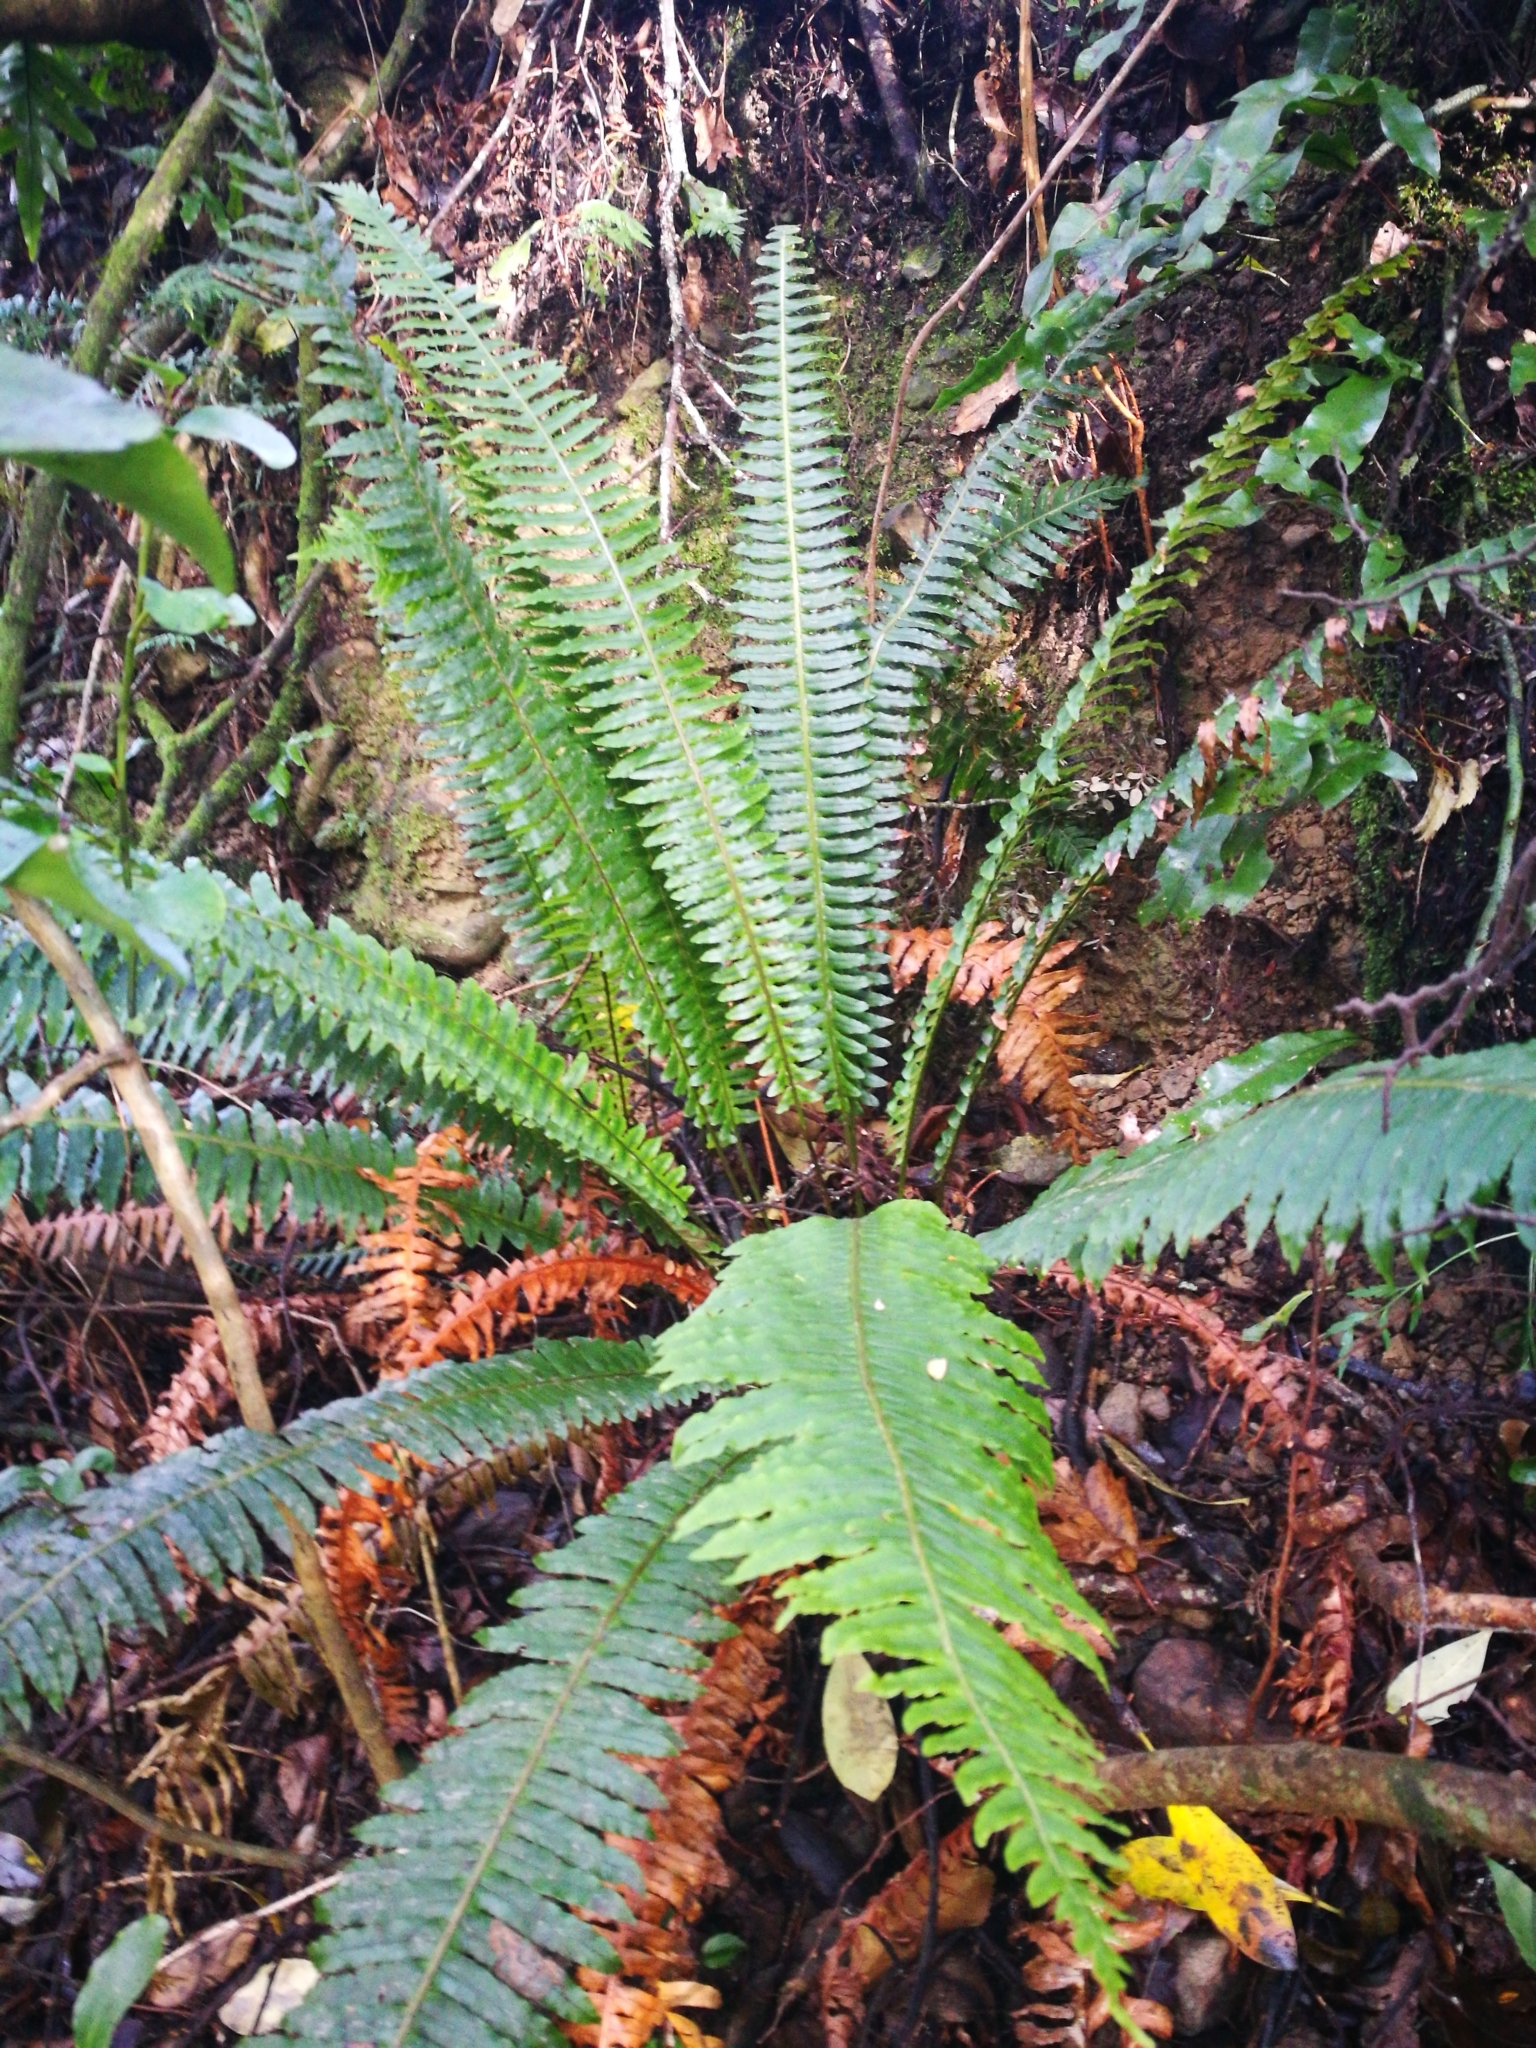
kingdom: Plantae
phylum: Tracheophyta
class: Polypodiopsida
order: Polypodiales
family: Blechnaceae
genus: Lomaria
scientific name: Lomaria discolor
